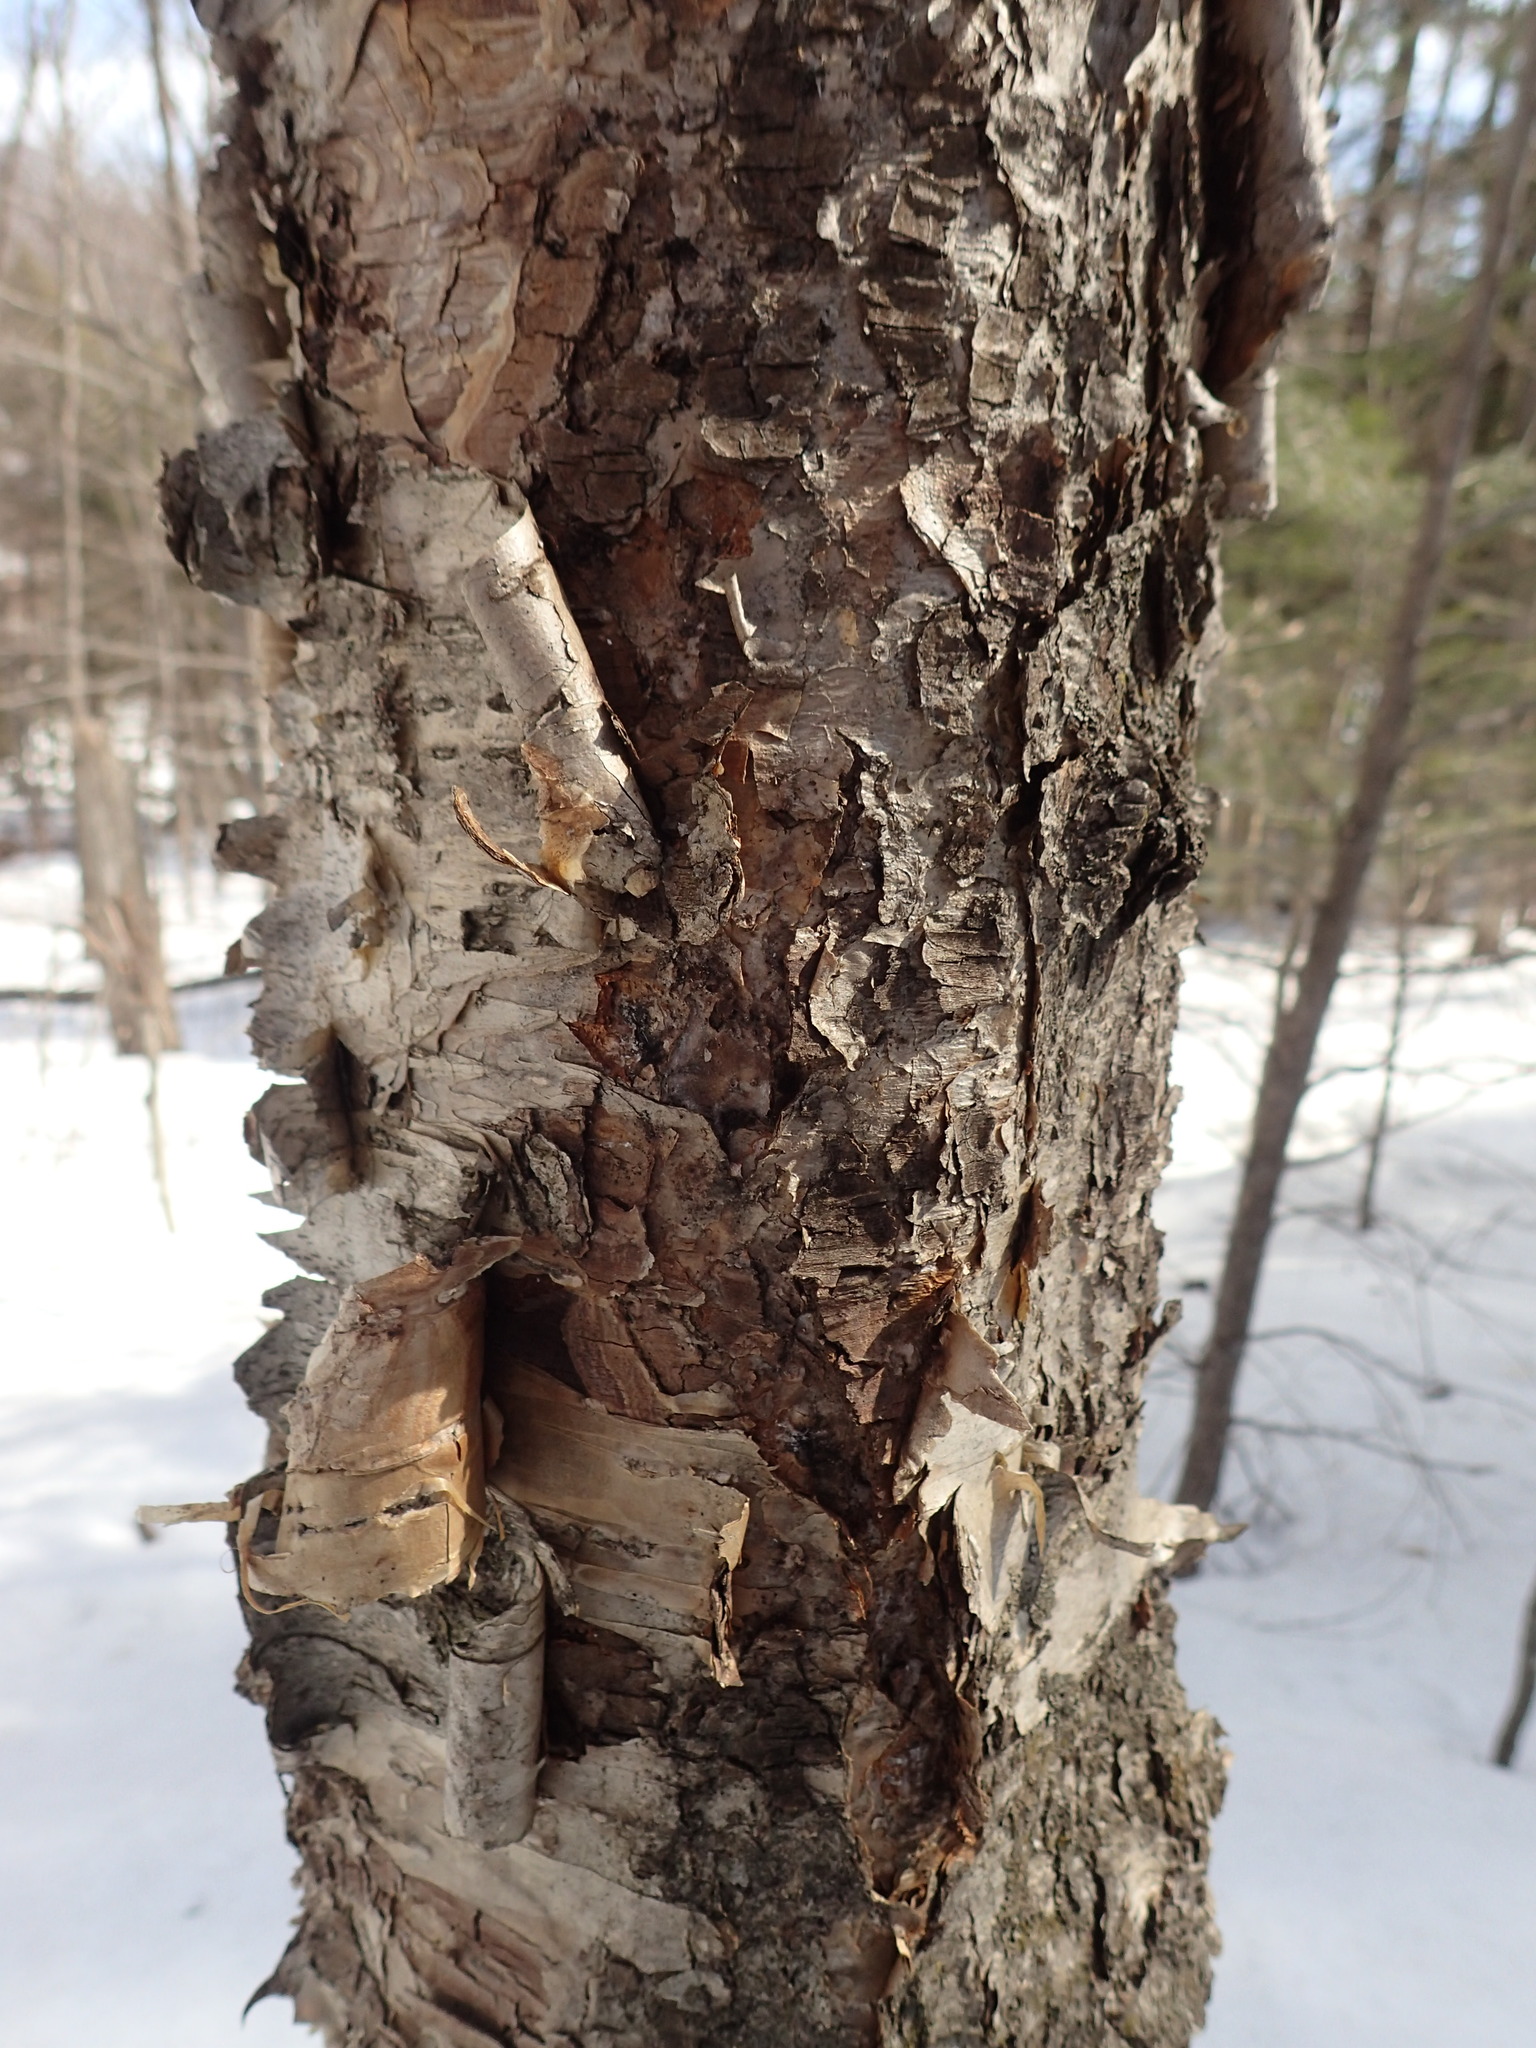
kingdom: Plantae
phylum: Tracheophyta
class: Magnoliopsida
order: Fagales
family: Betulaceae
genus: Betula
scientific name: Betula alleghaniensis
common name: Yellow birch
